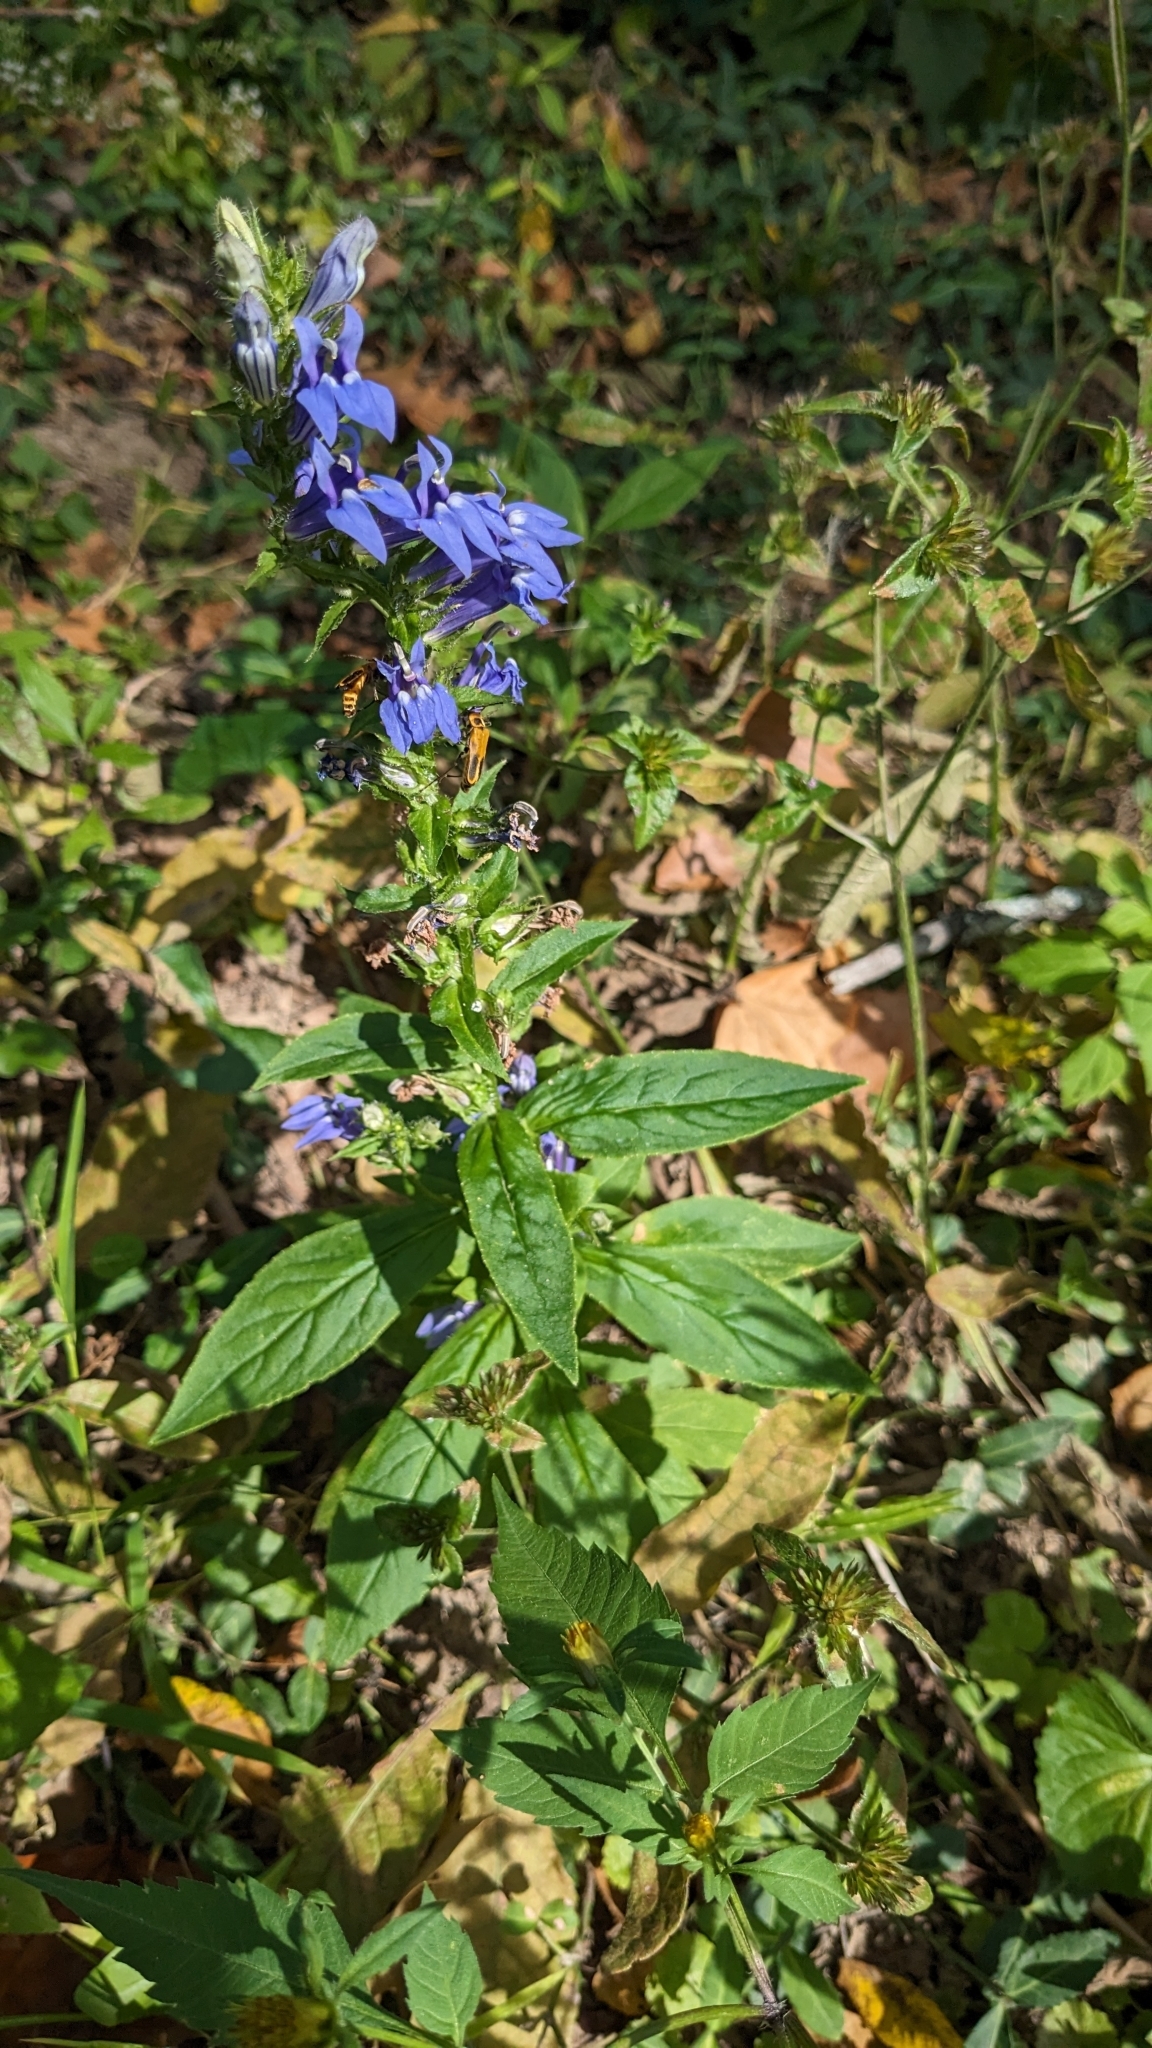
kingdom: Plantae
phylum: Tracheophyta
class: Magnoliopsida
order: Asterales
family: Campanulaceae
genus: Lobelia
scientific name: Lobelia siphilitica
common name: Great lobelia
